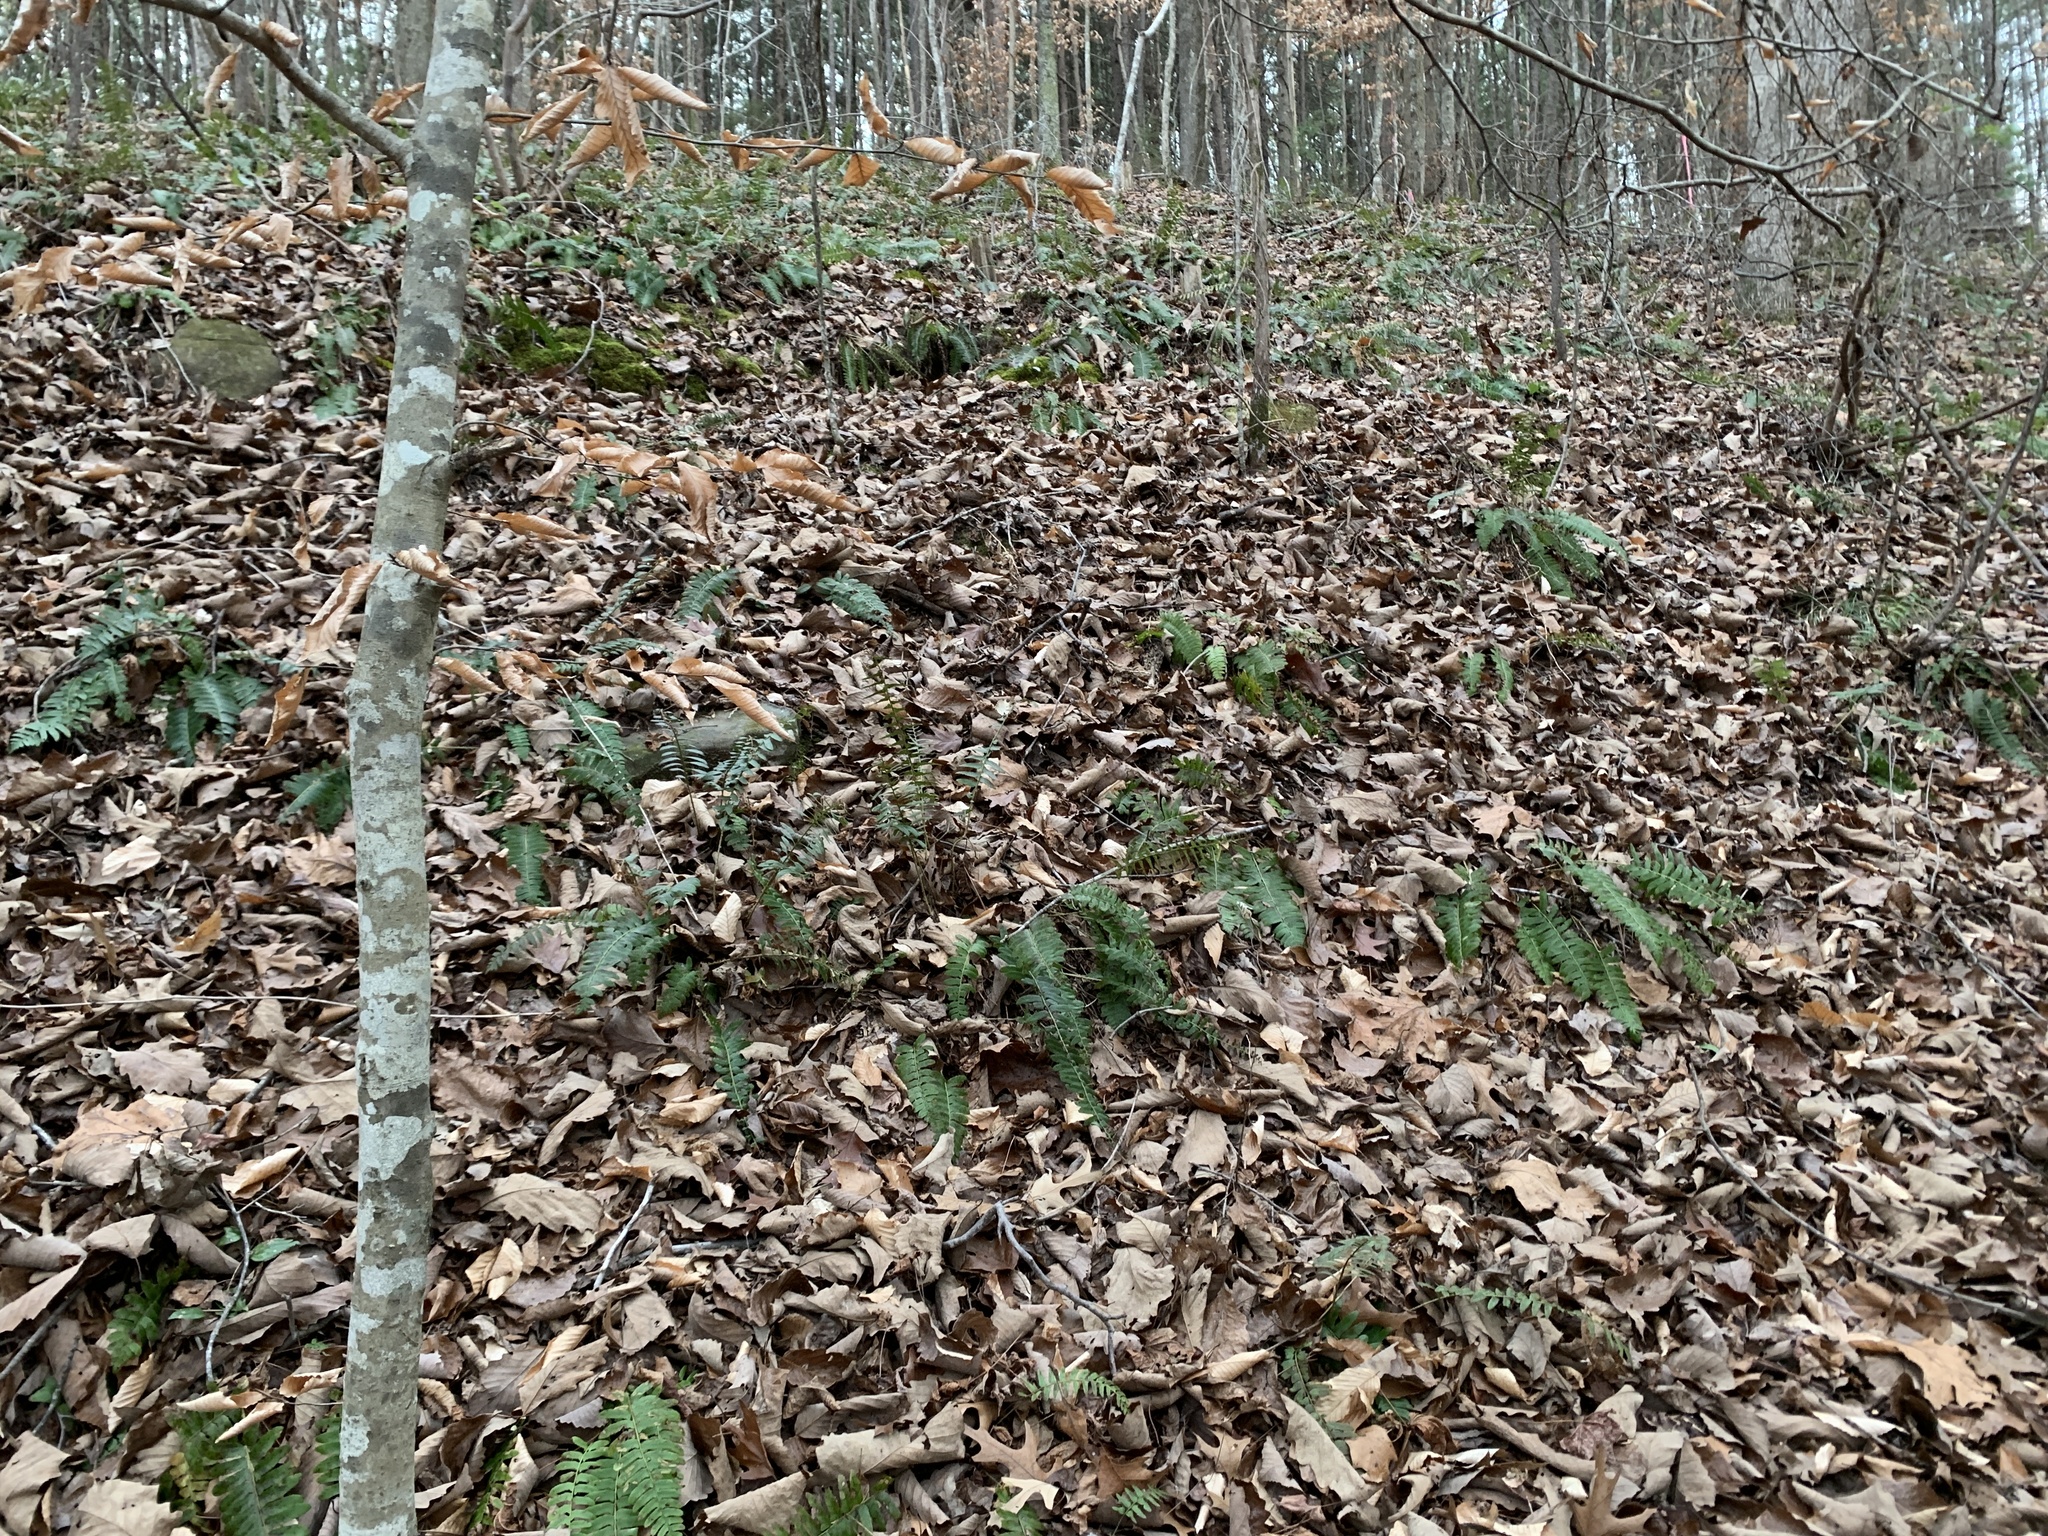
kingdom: Plantae
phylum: Tracheophyta
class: Polypodiopsida
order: Polypodiales
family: Dryopteridaceae
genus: Polystichum
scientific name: Polystichum acrostichoides
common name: Christmas fern
